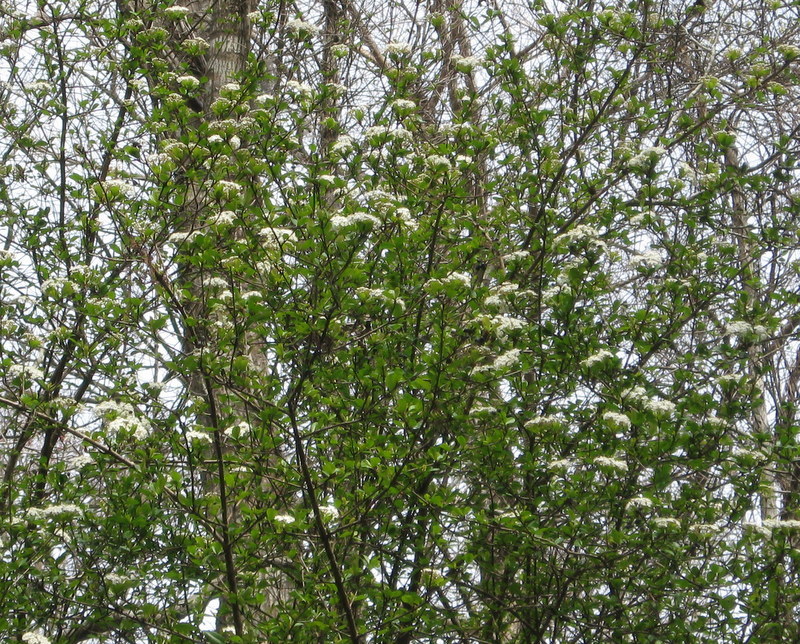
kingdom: Plantae
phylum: Tracheophyta
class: Magnoliopsida
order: Dipsacales
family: Viburnaceae
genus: Viburnum
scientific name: Viburnum obovatum
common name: Walter's viburnum
